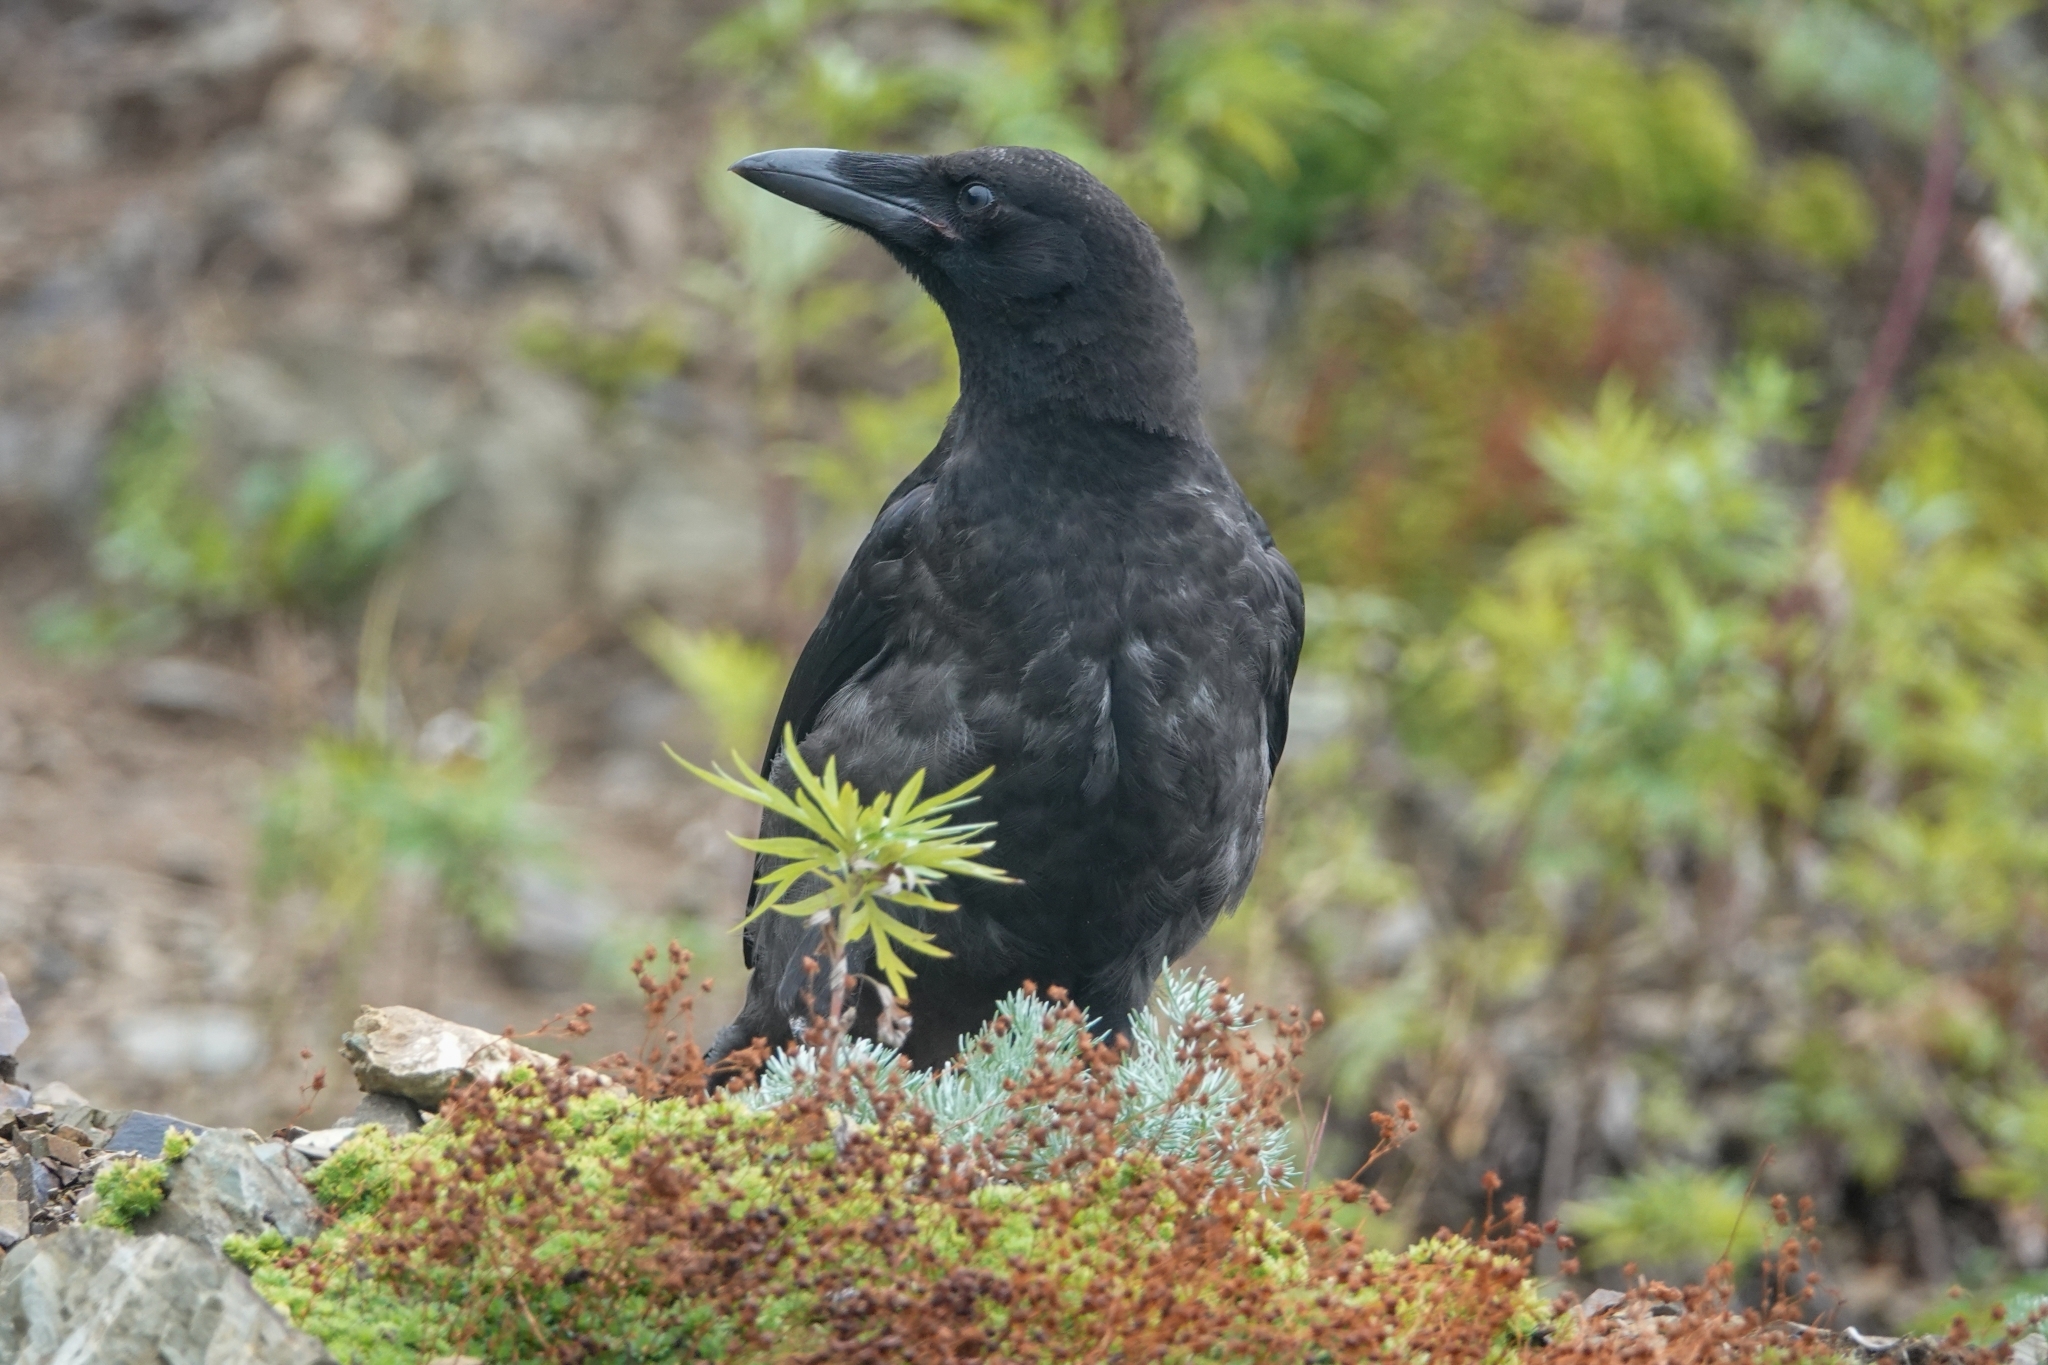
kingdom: Animalia
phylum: Chordata
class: Aves
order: Passeriformes
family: Corvidae
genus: Corvus
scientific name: Corvus corone
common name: Carrion crow
